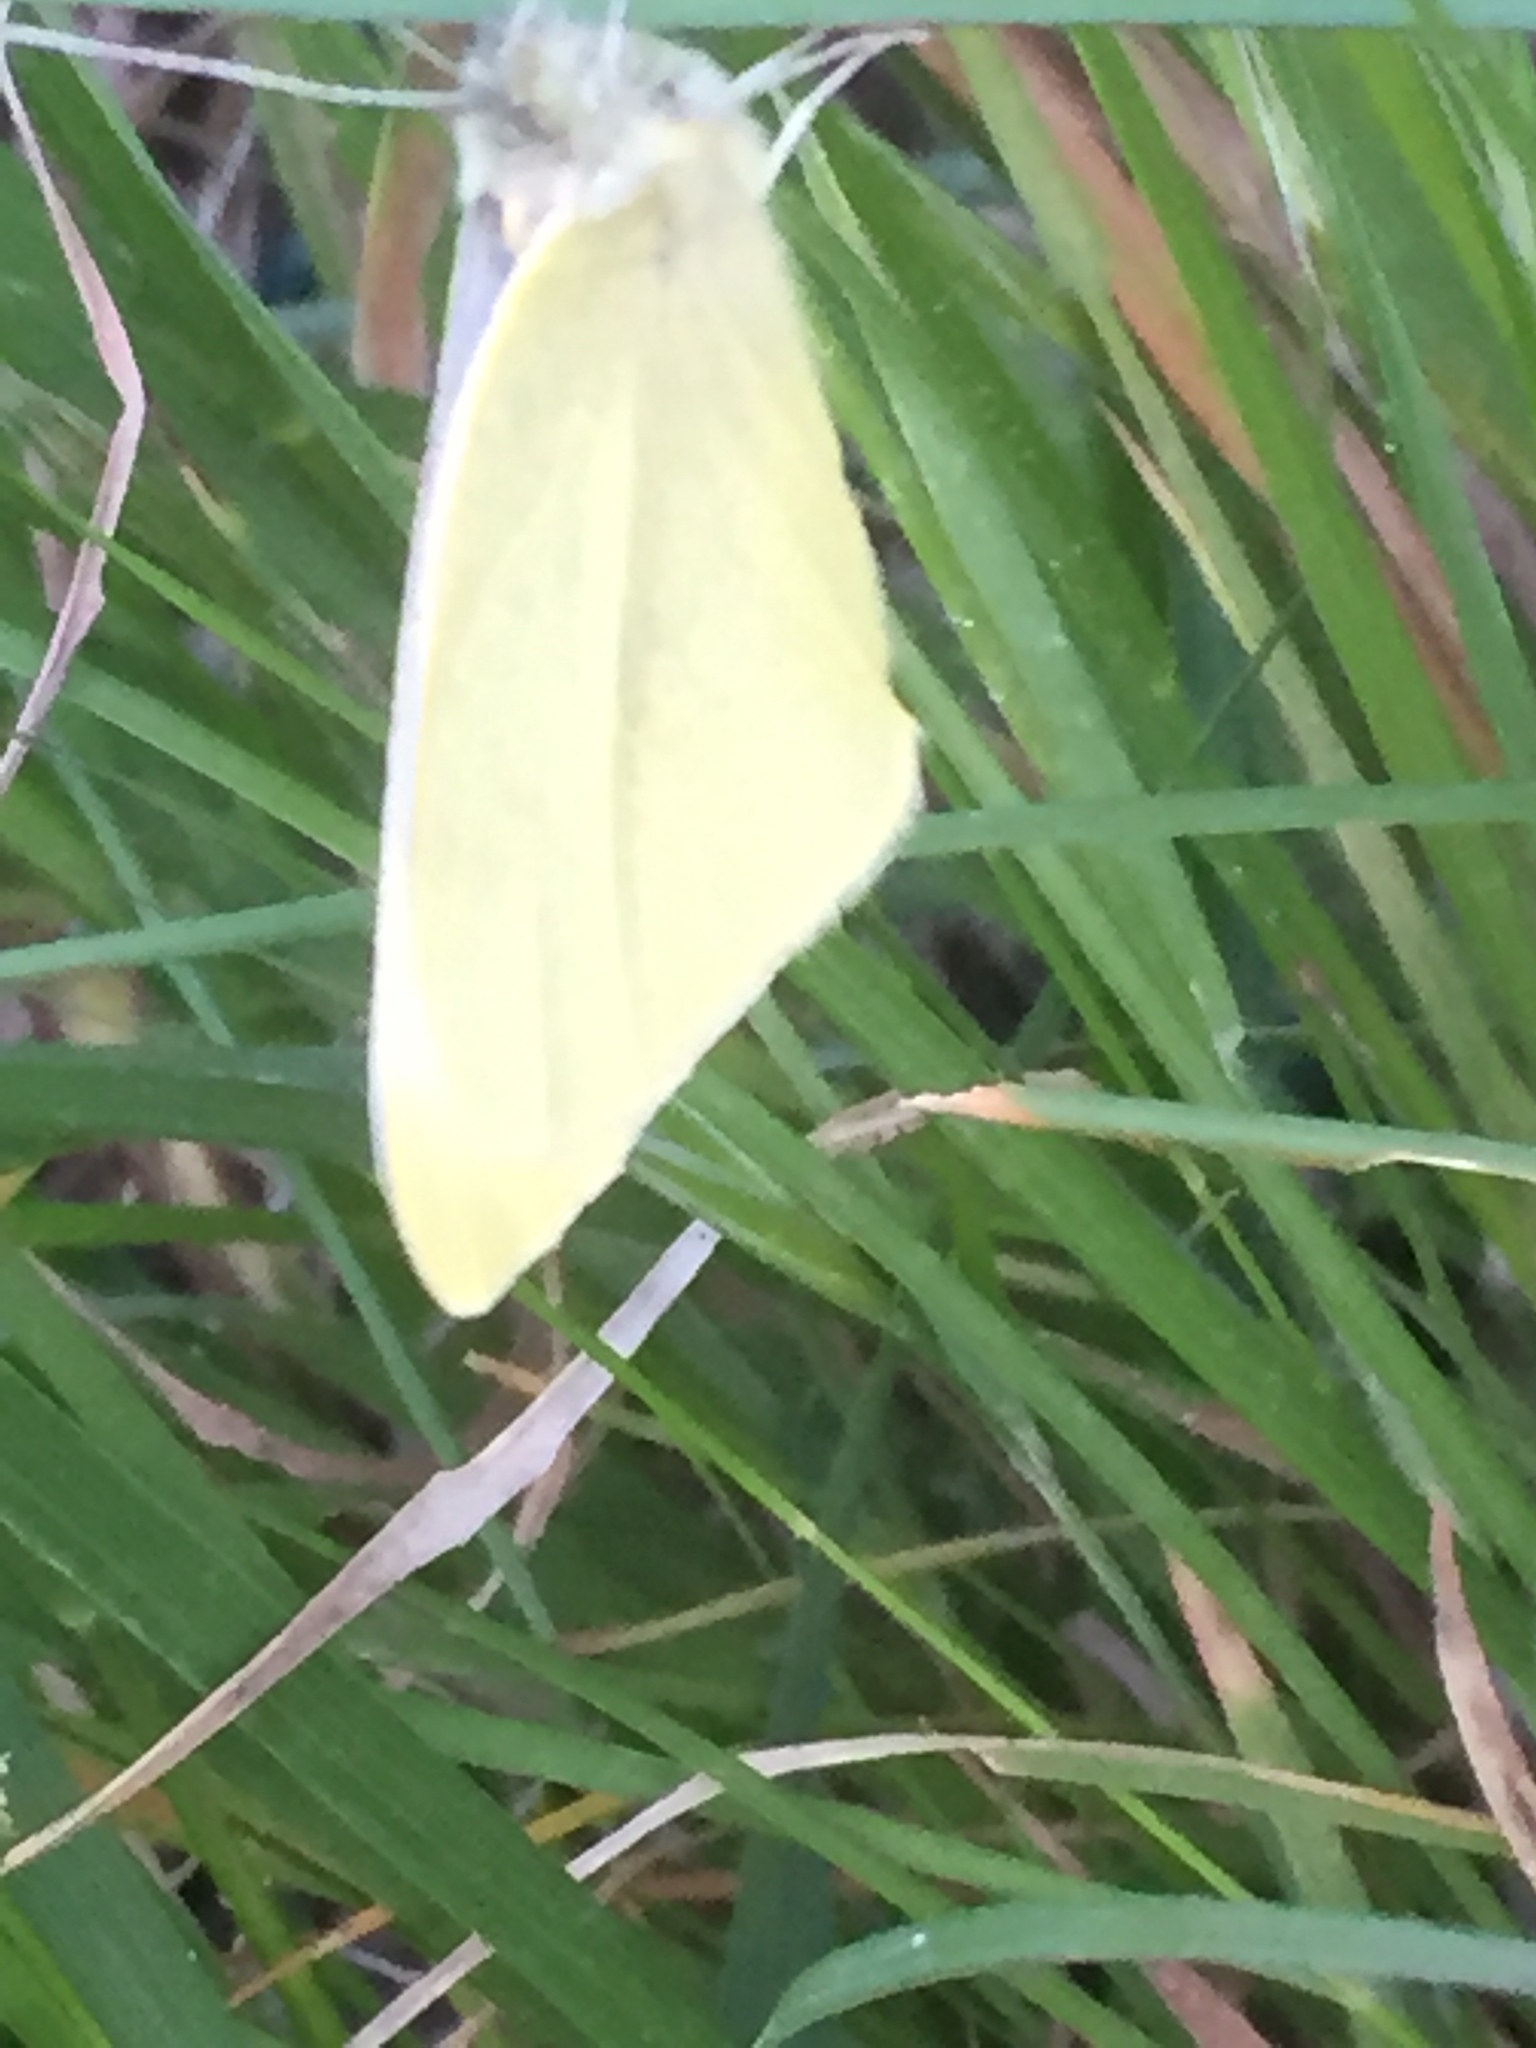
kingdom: Animalia
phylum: Arthropoda
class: Insecta
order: Lepidoptera
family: Pieridae
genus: Pieris
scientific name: Pieris rapae
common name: Small white
